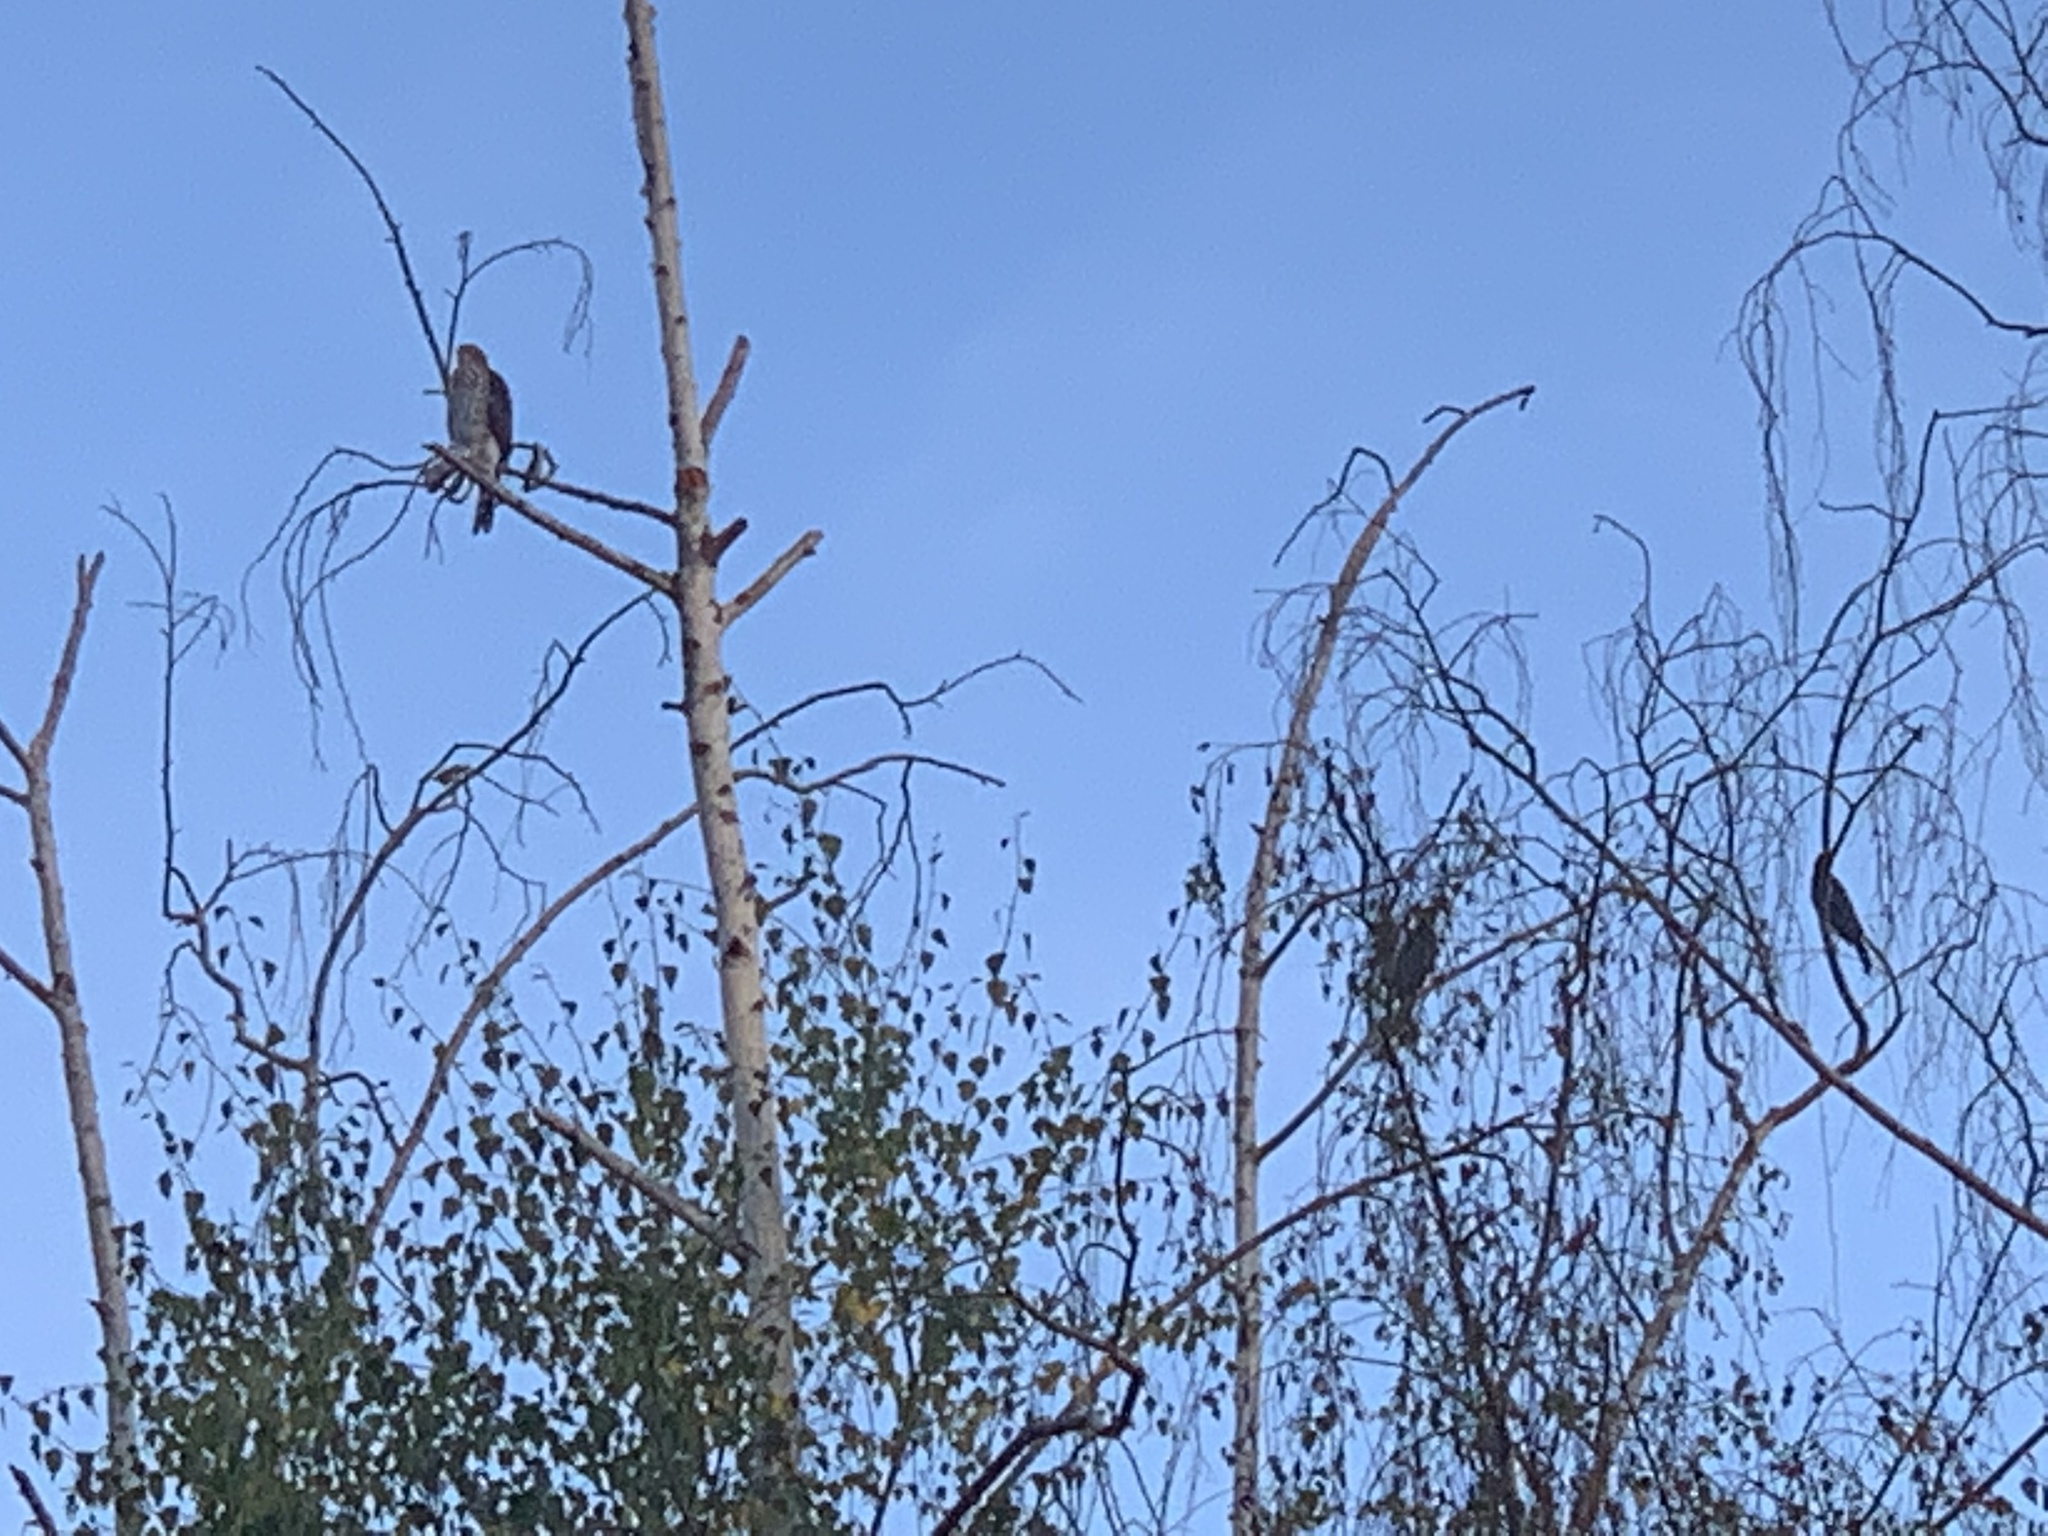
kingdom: Animalia
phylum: Chordata
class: Aves
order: Accipitriformes
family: Accipitridae
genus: Accipiter
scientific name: Accipiter cooperii
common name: Cooper's hawk
